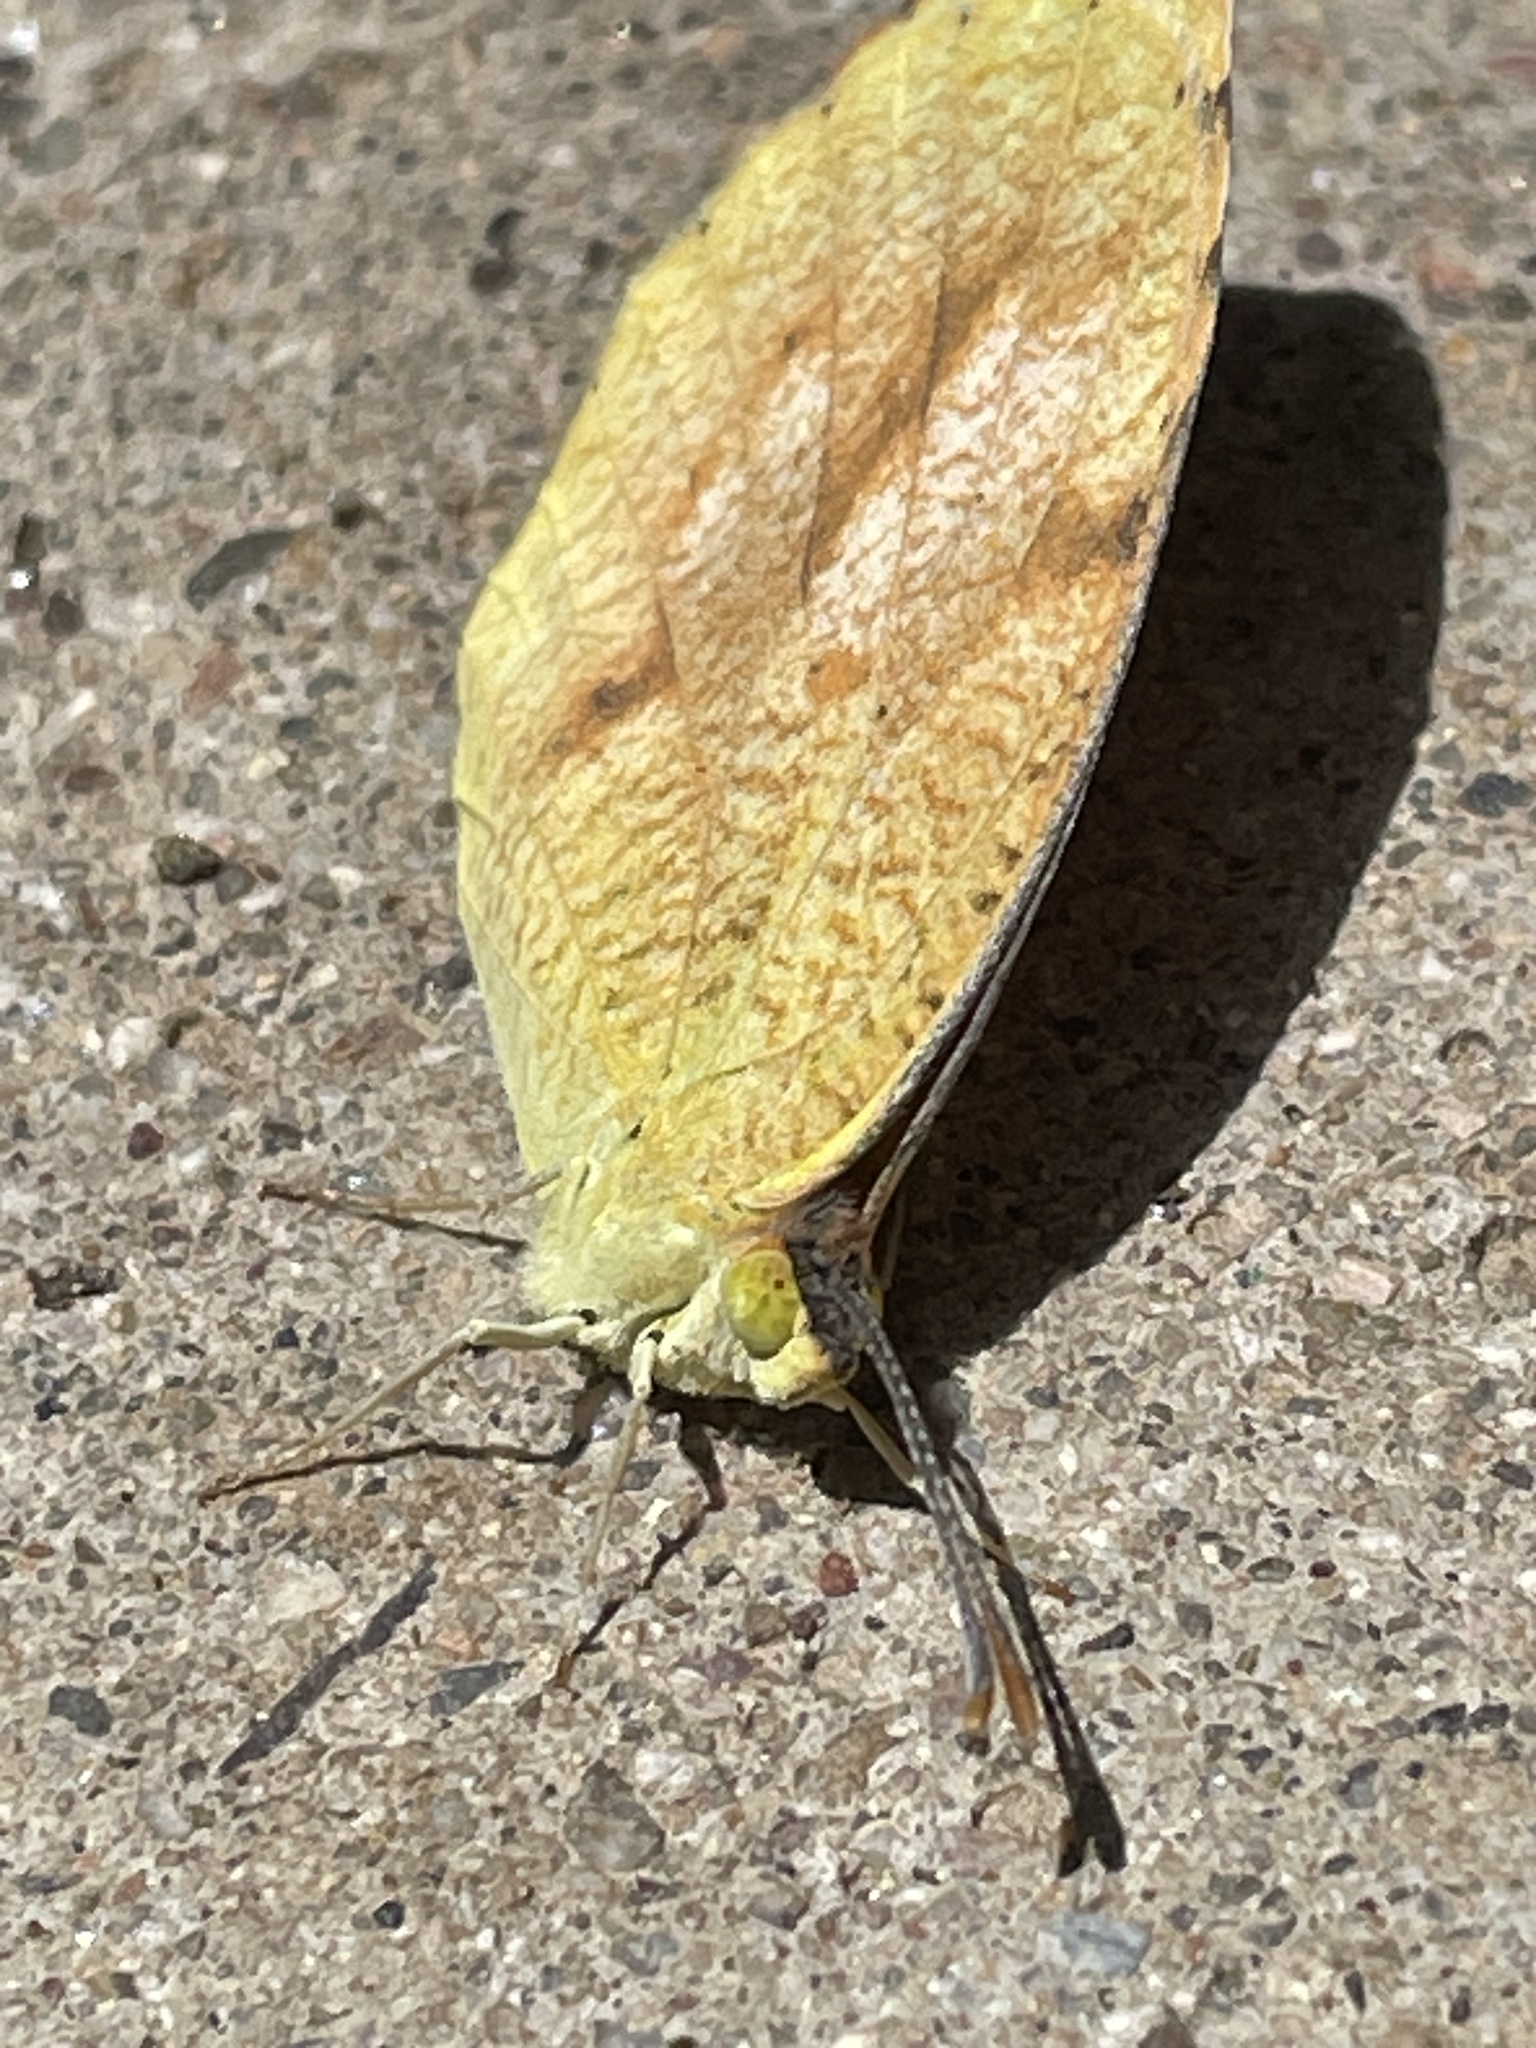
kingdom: Animalia
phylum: Arthropoda
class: Insecta
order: Lepidoptera
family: Pieridae
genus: Abaeis
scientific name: Abaeis nicippe
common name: Sleepy orange
